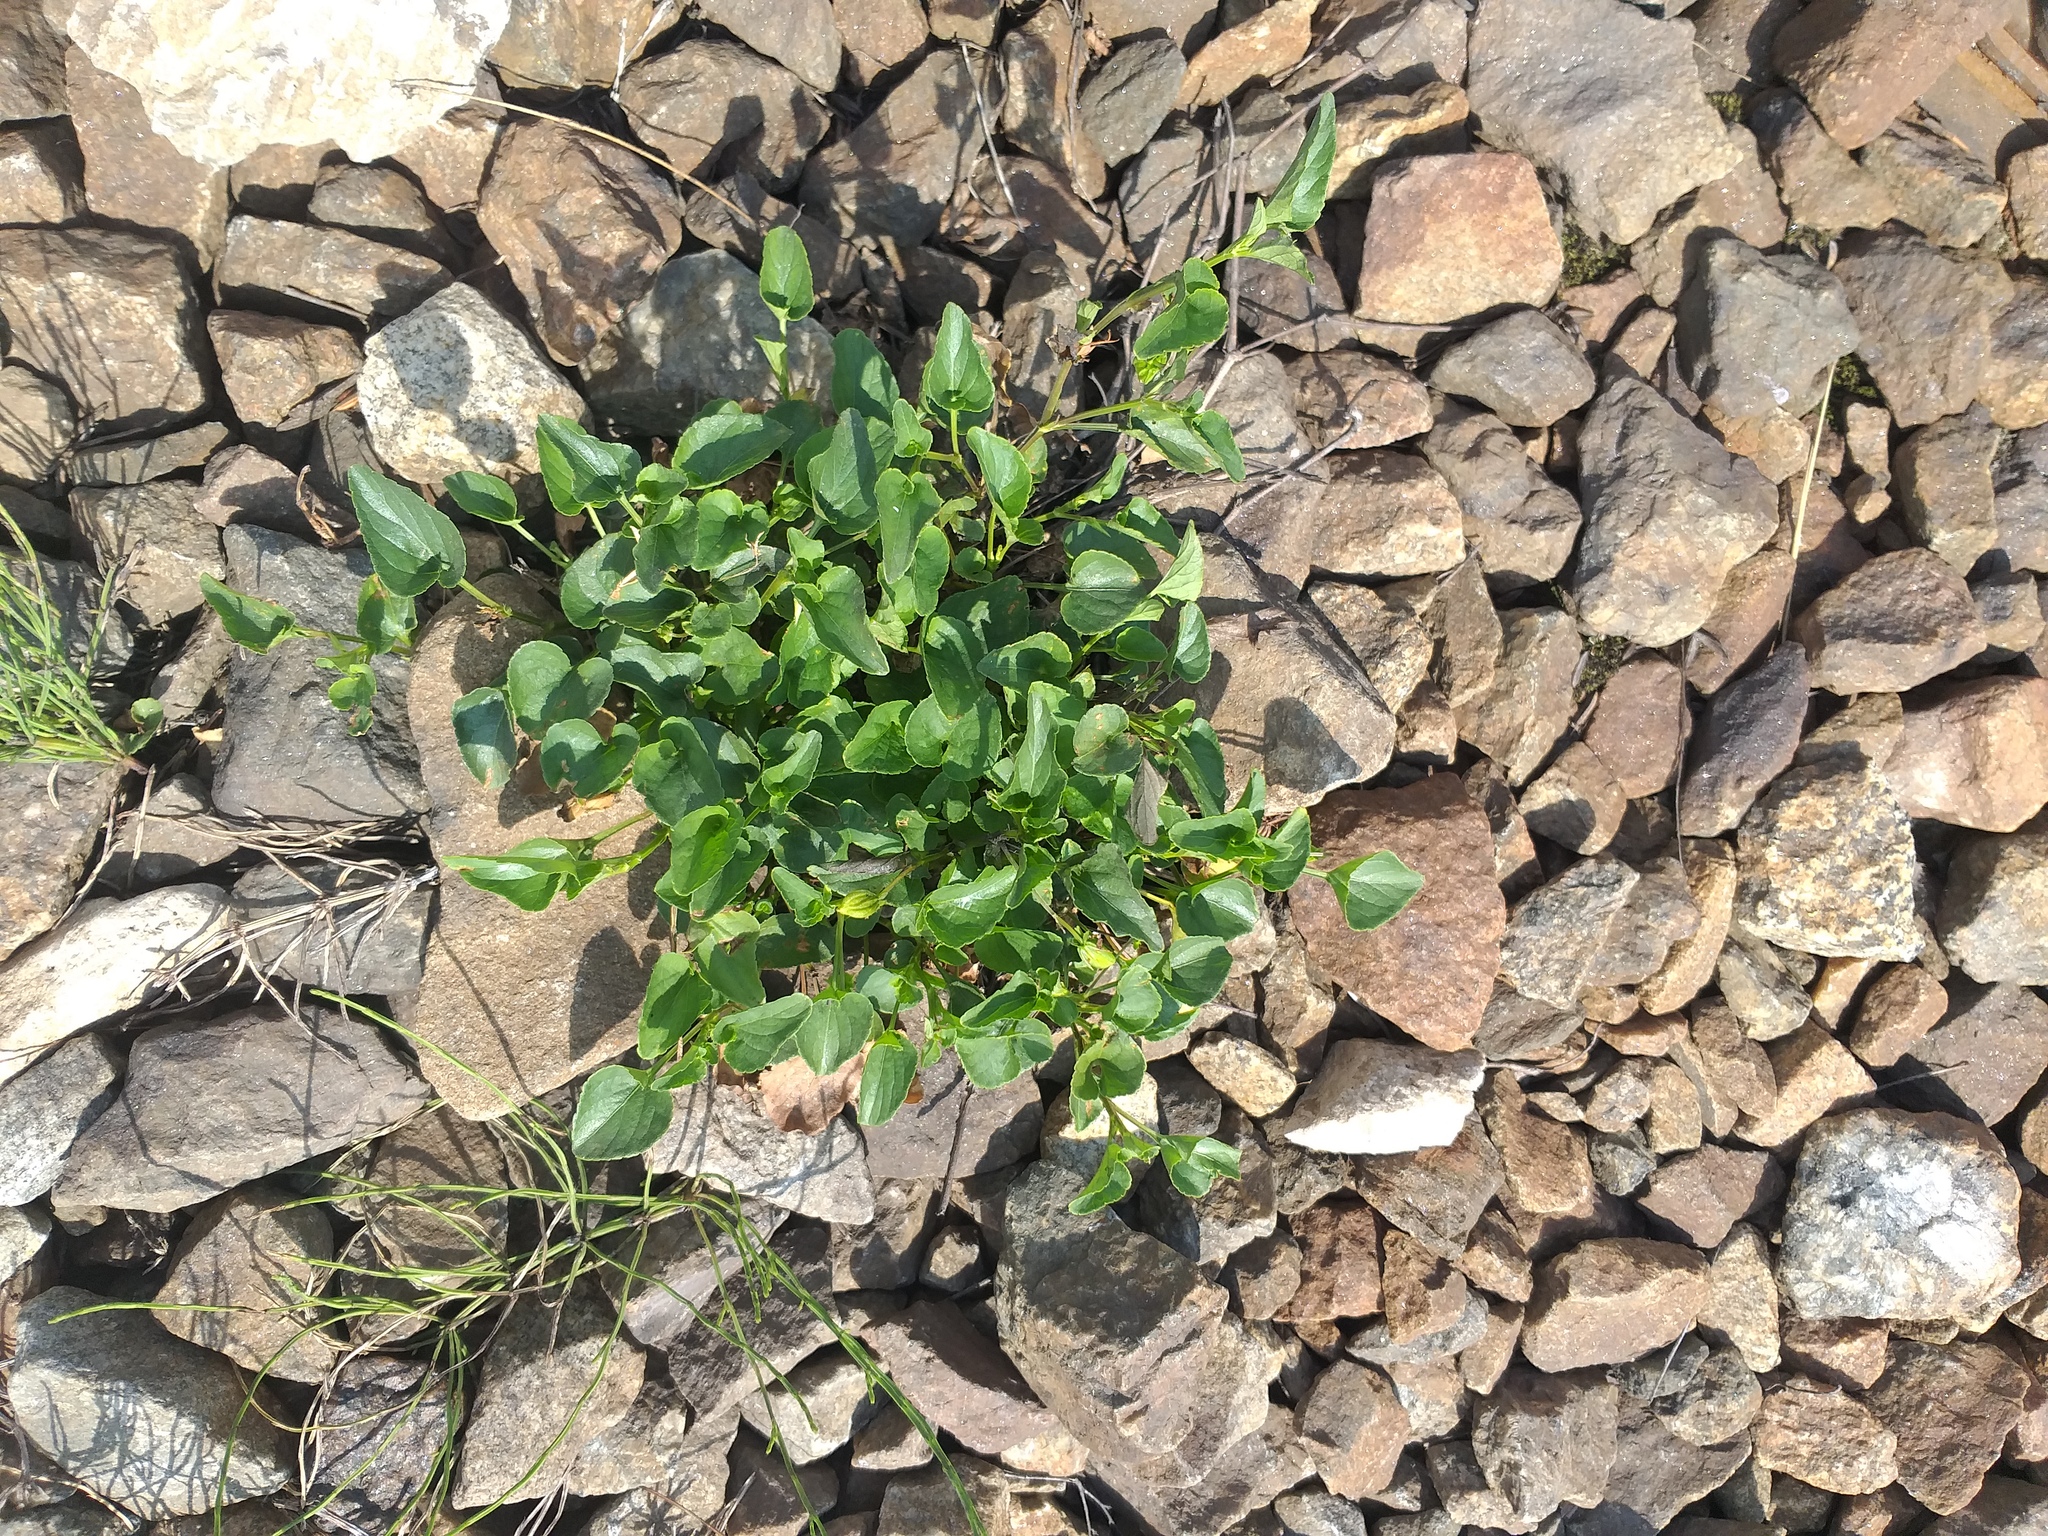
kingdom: Plantae
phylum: Tracheophyta
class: Magnoliopsida
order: Malpighiales
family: Violaceae
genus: Viola
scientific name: Viola canina
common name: Heath dog-violet
